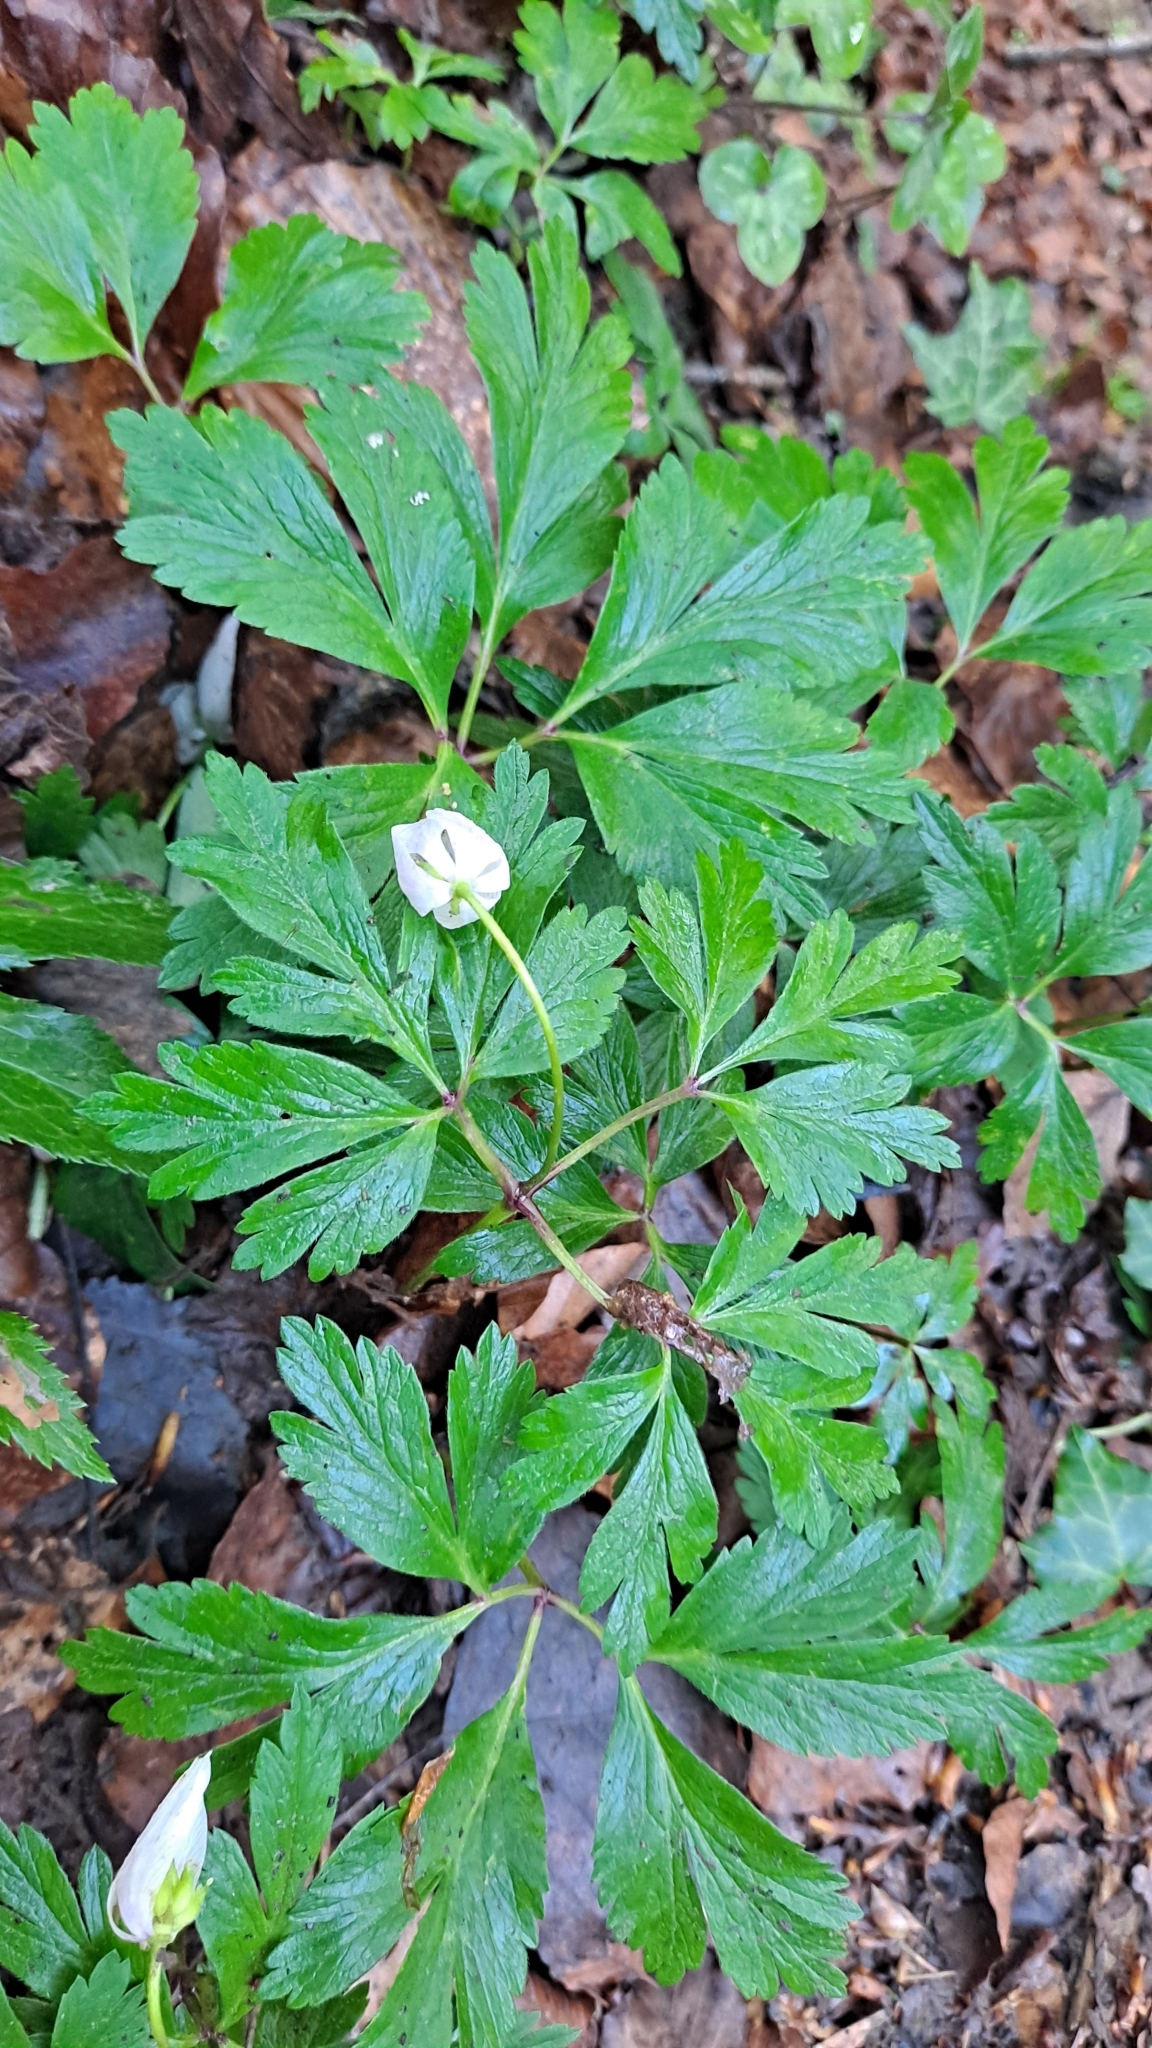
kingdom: Plantae
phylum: Tracheophyta
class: Magnoliopsida
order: Ranunculales
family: Ranunculaceae
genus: Anemone
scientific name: Anemone nemorosa
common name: Wood anemone
